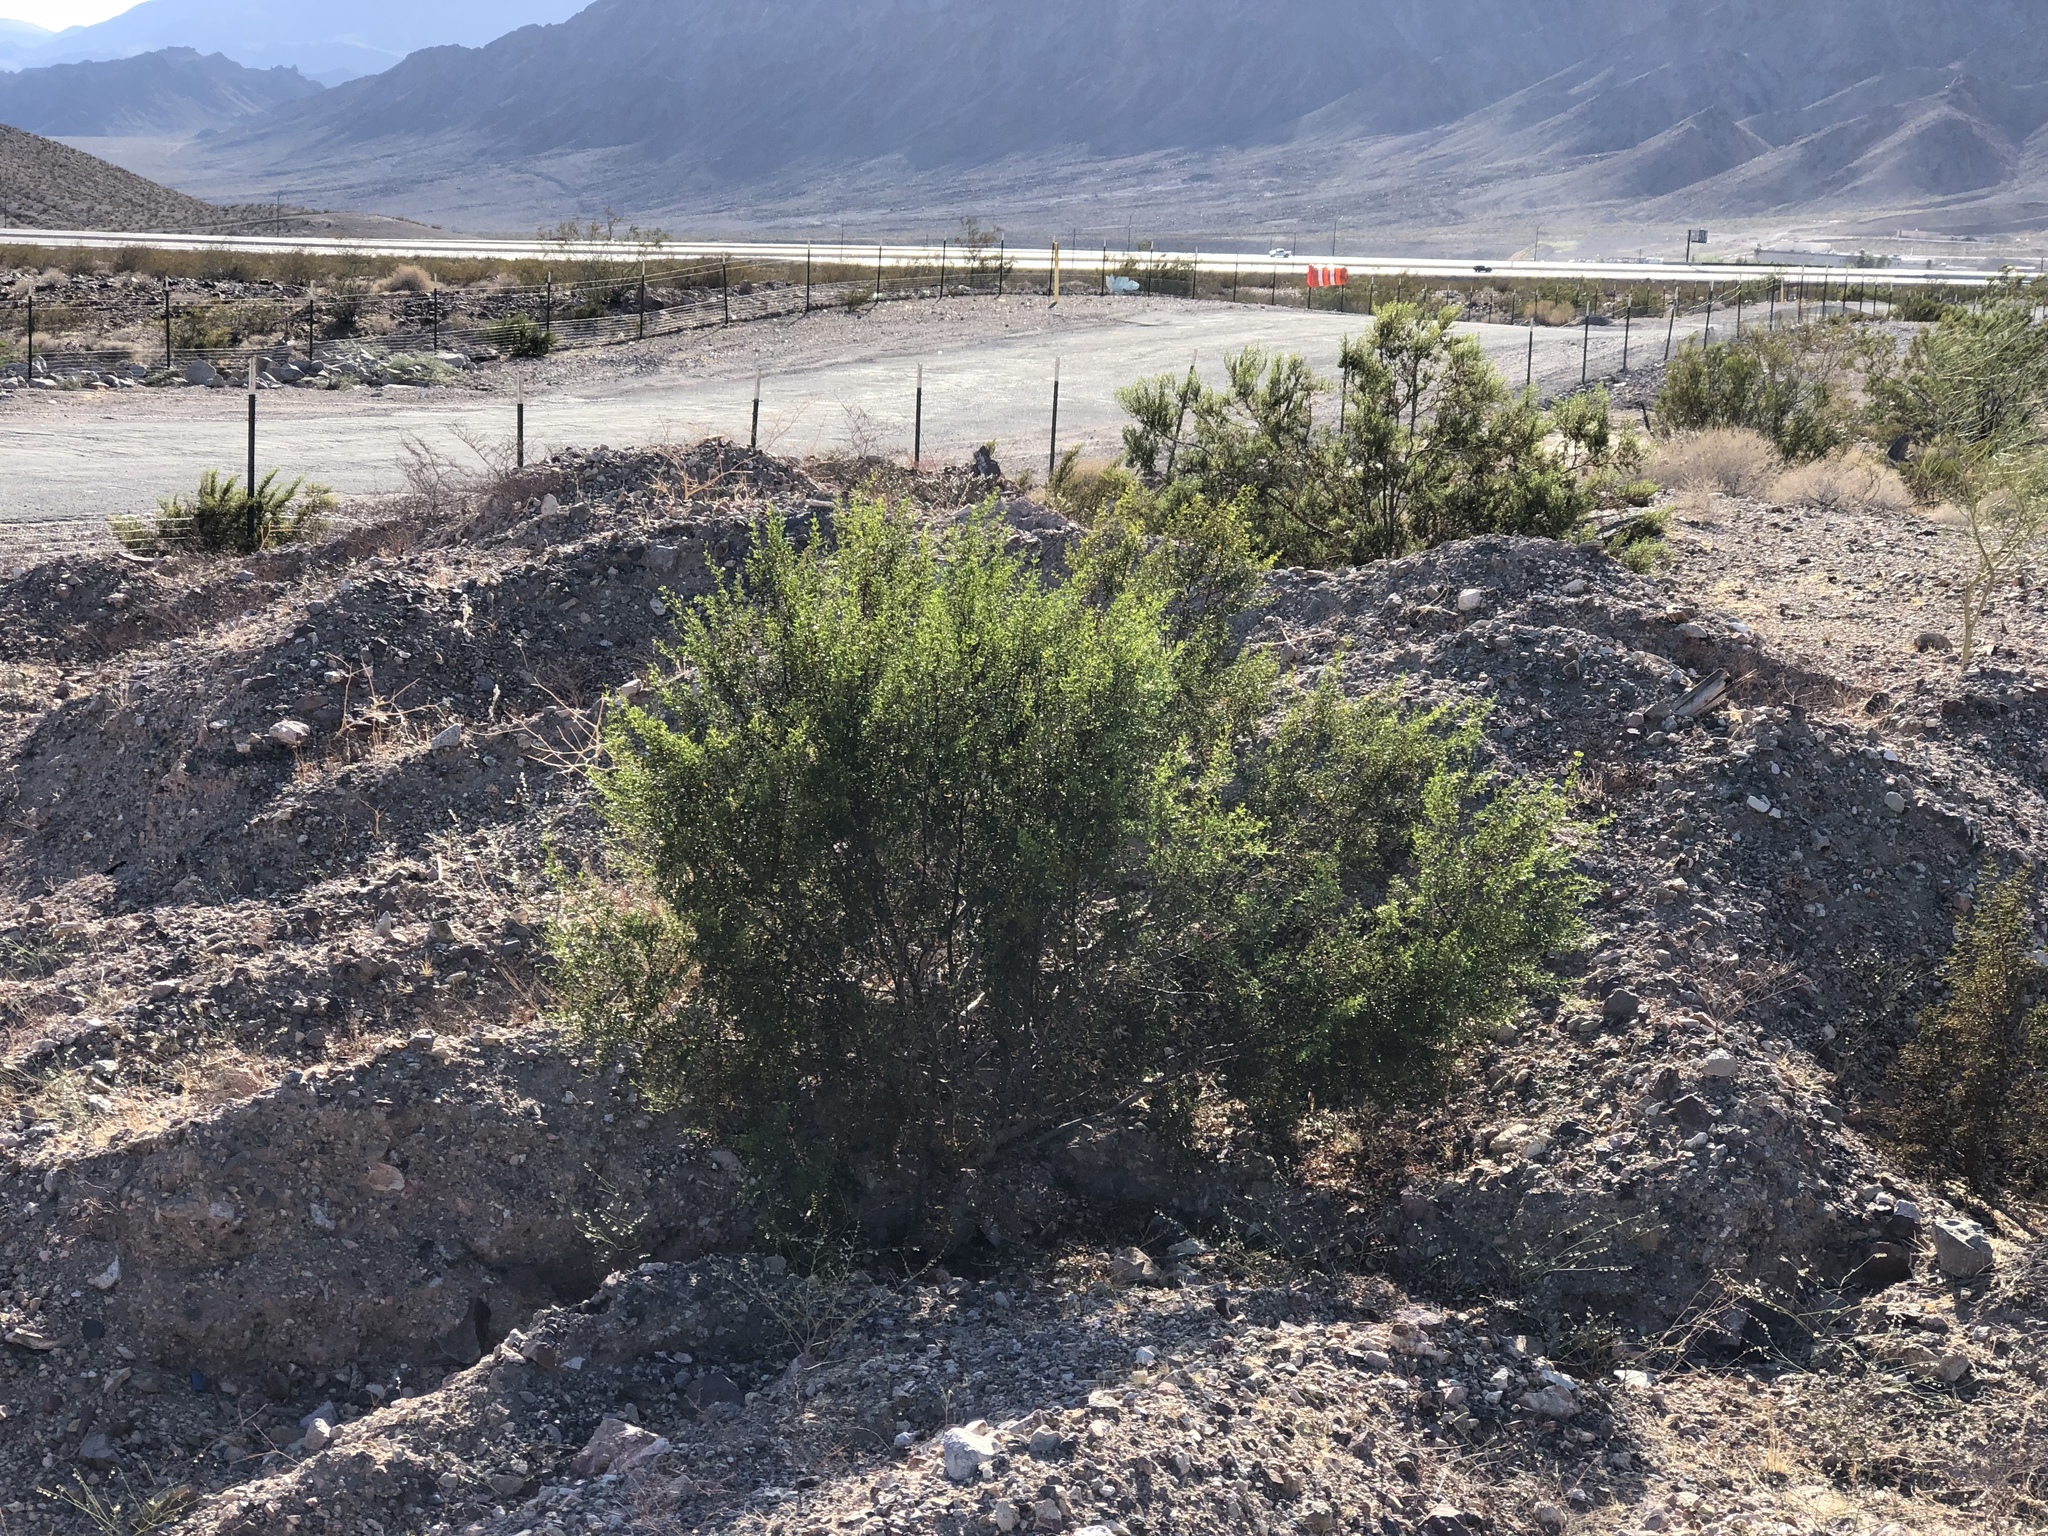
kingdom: Plantae
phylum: Tracheophyta
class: Magnoliopsida
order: Zygophyllales
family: Zygophyllaceae
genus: Larrea
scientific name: Larrea tridentata
